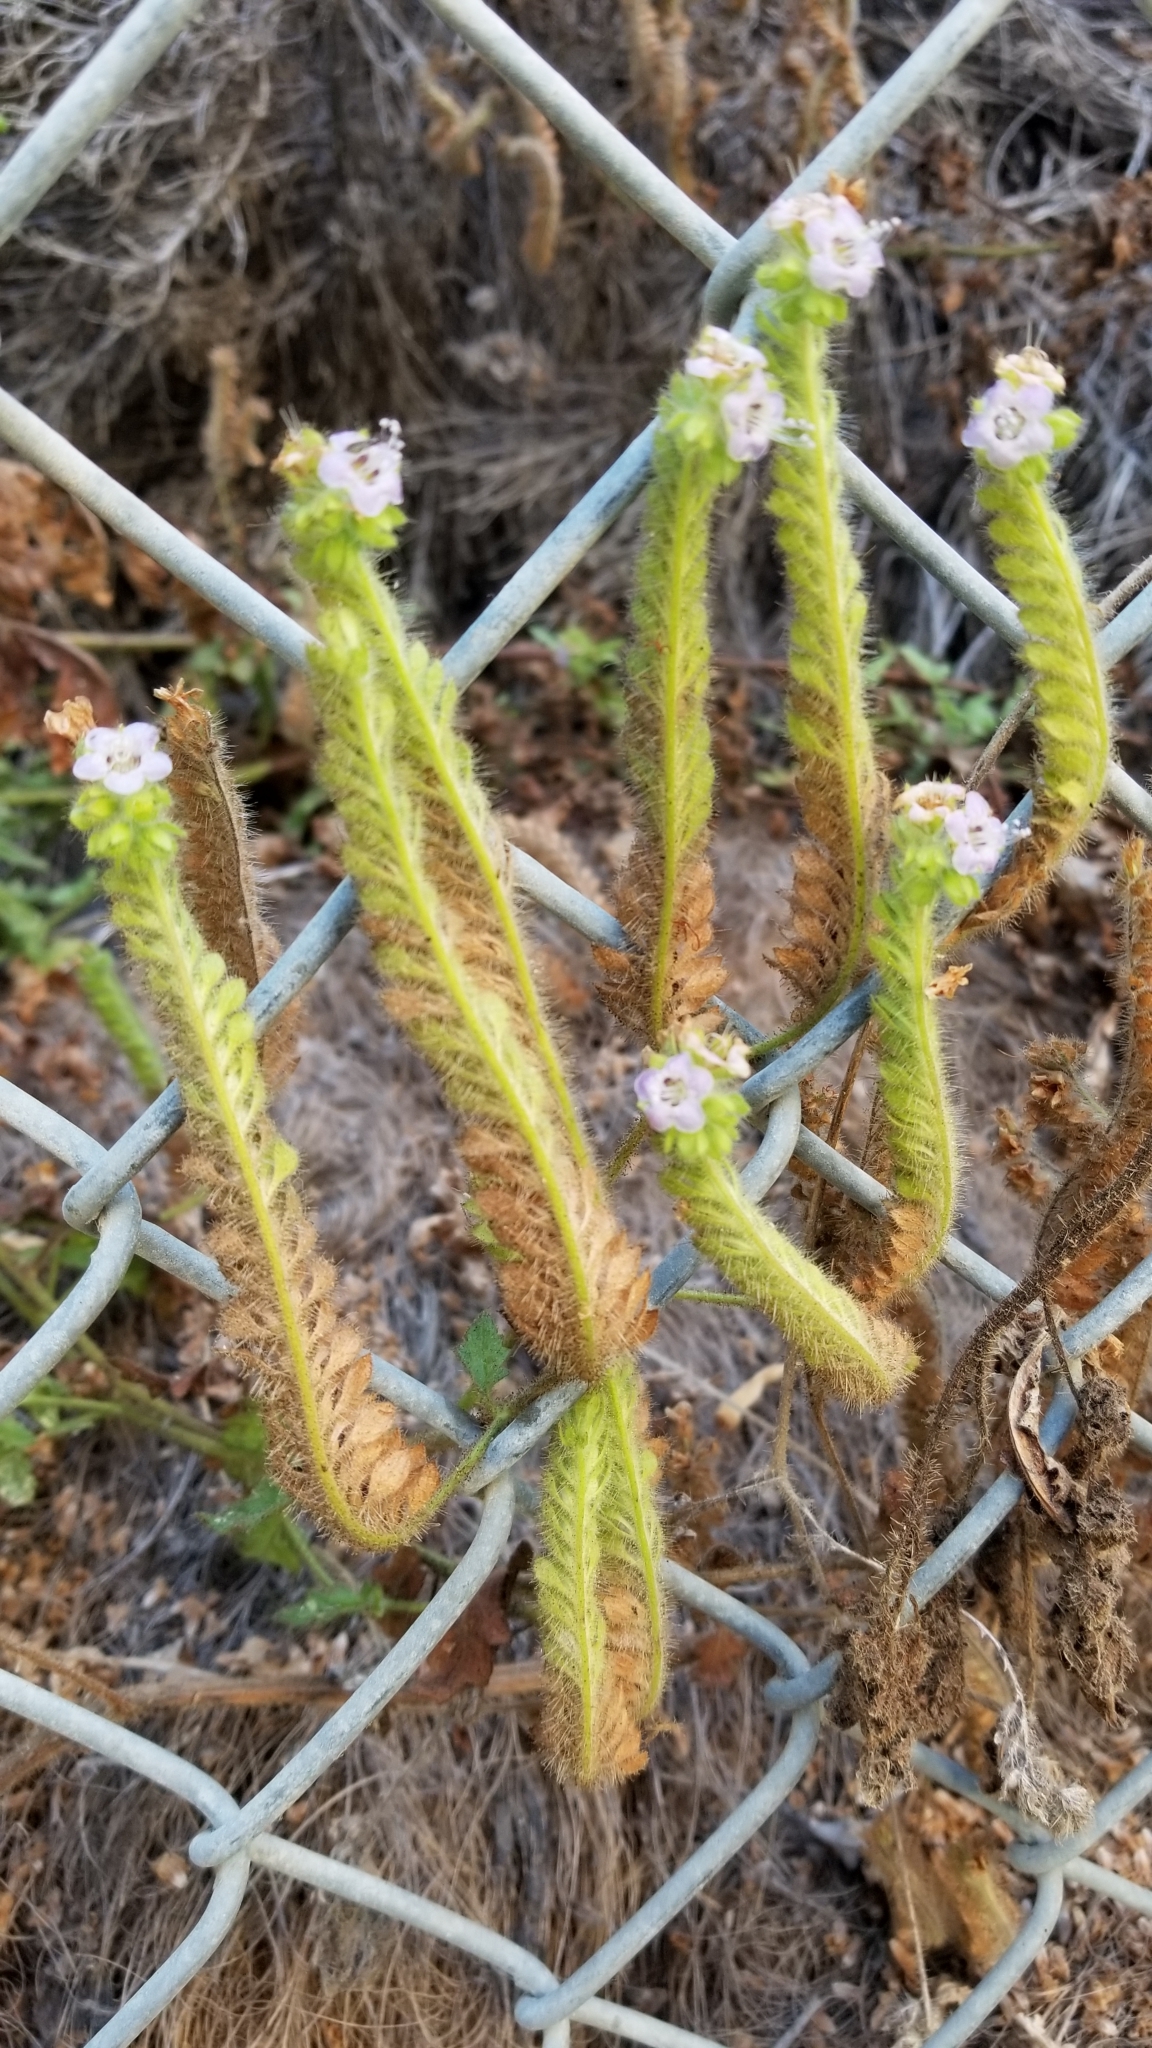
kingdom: Plantae
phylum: Tracheophyta
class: Magnoliopsida
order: Boraginales
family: Hydrophyllaceae
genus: Phacelia
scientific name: Phacelia ramosissima
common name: Branching phacelia
